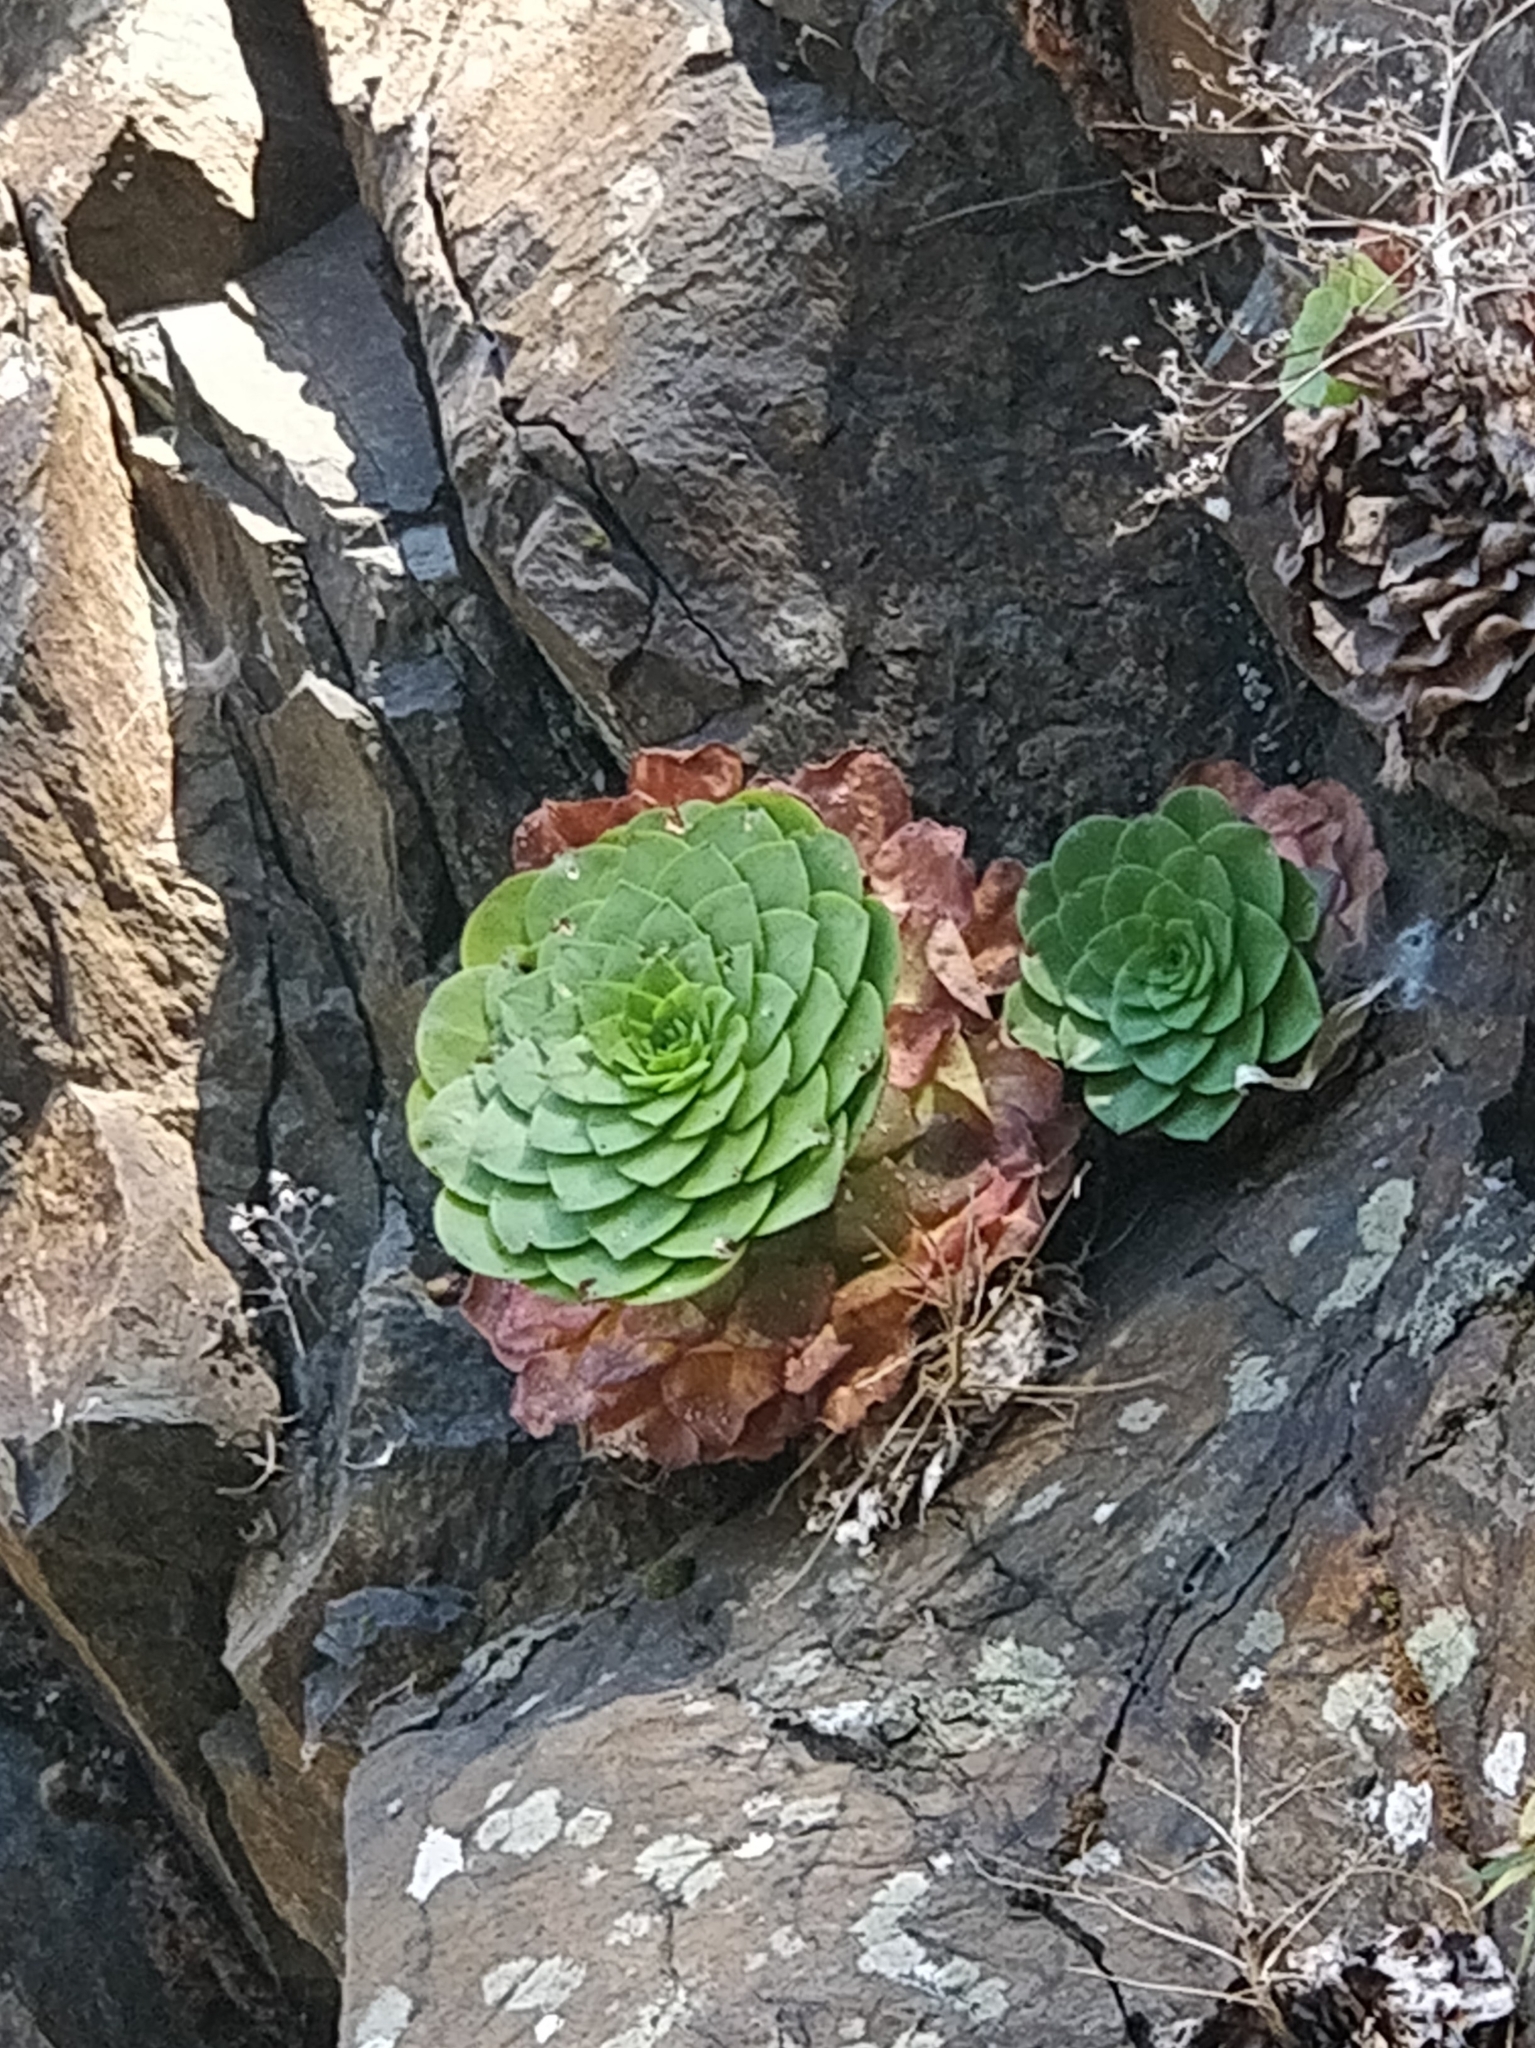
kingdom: Plantae
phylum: Tracheophyta
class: Magnoliopsida
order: Saxifragales
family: Crassulaceae
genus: Aeonium
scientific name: Aeonium glandulosum
